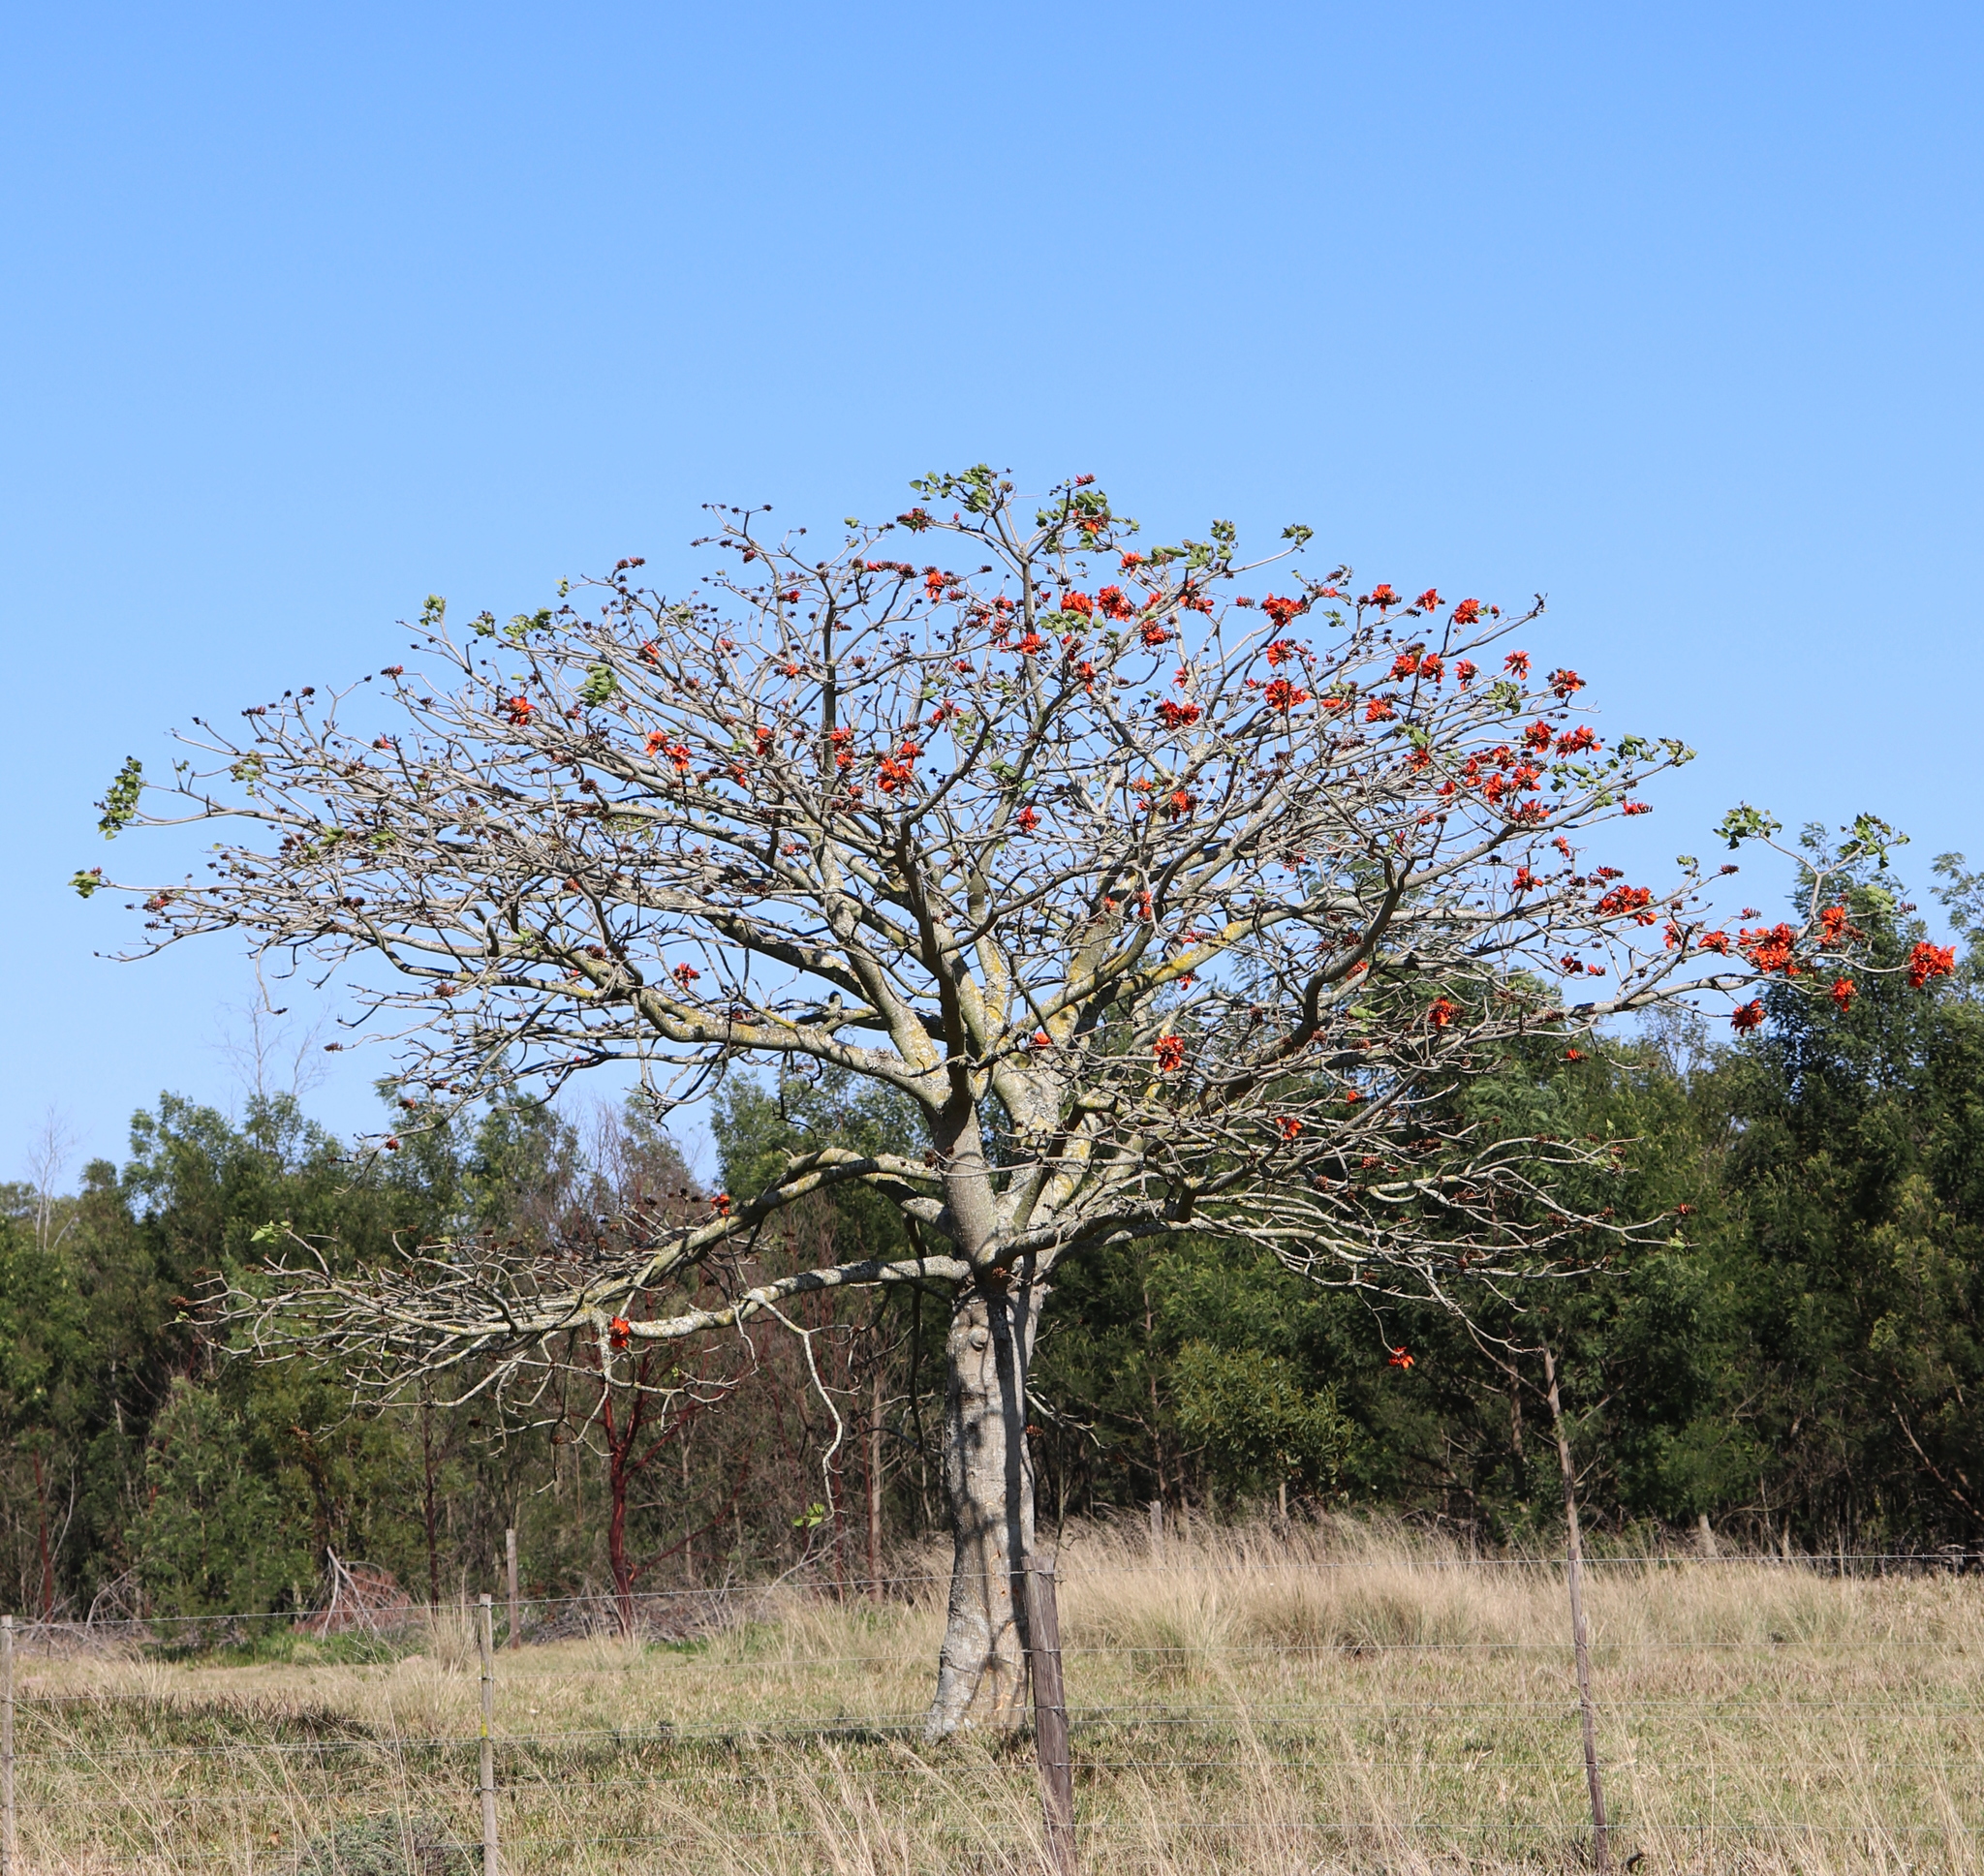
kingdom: Plantae
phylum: Tracheophyta
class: Magnoliopsida
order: Fabales
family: Fabaceae
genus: Erythrina
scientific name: Erythrina caffra
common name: Coast coral tree
